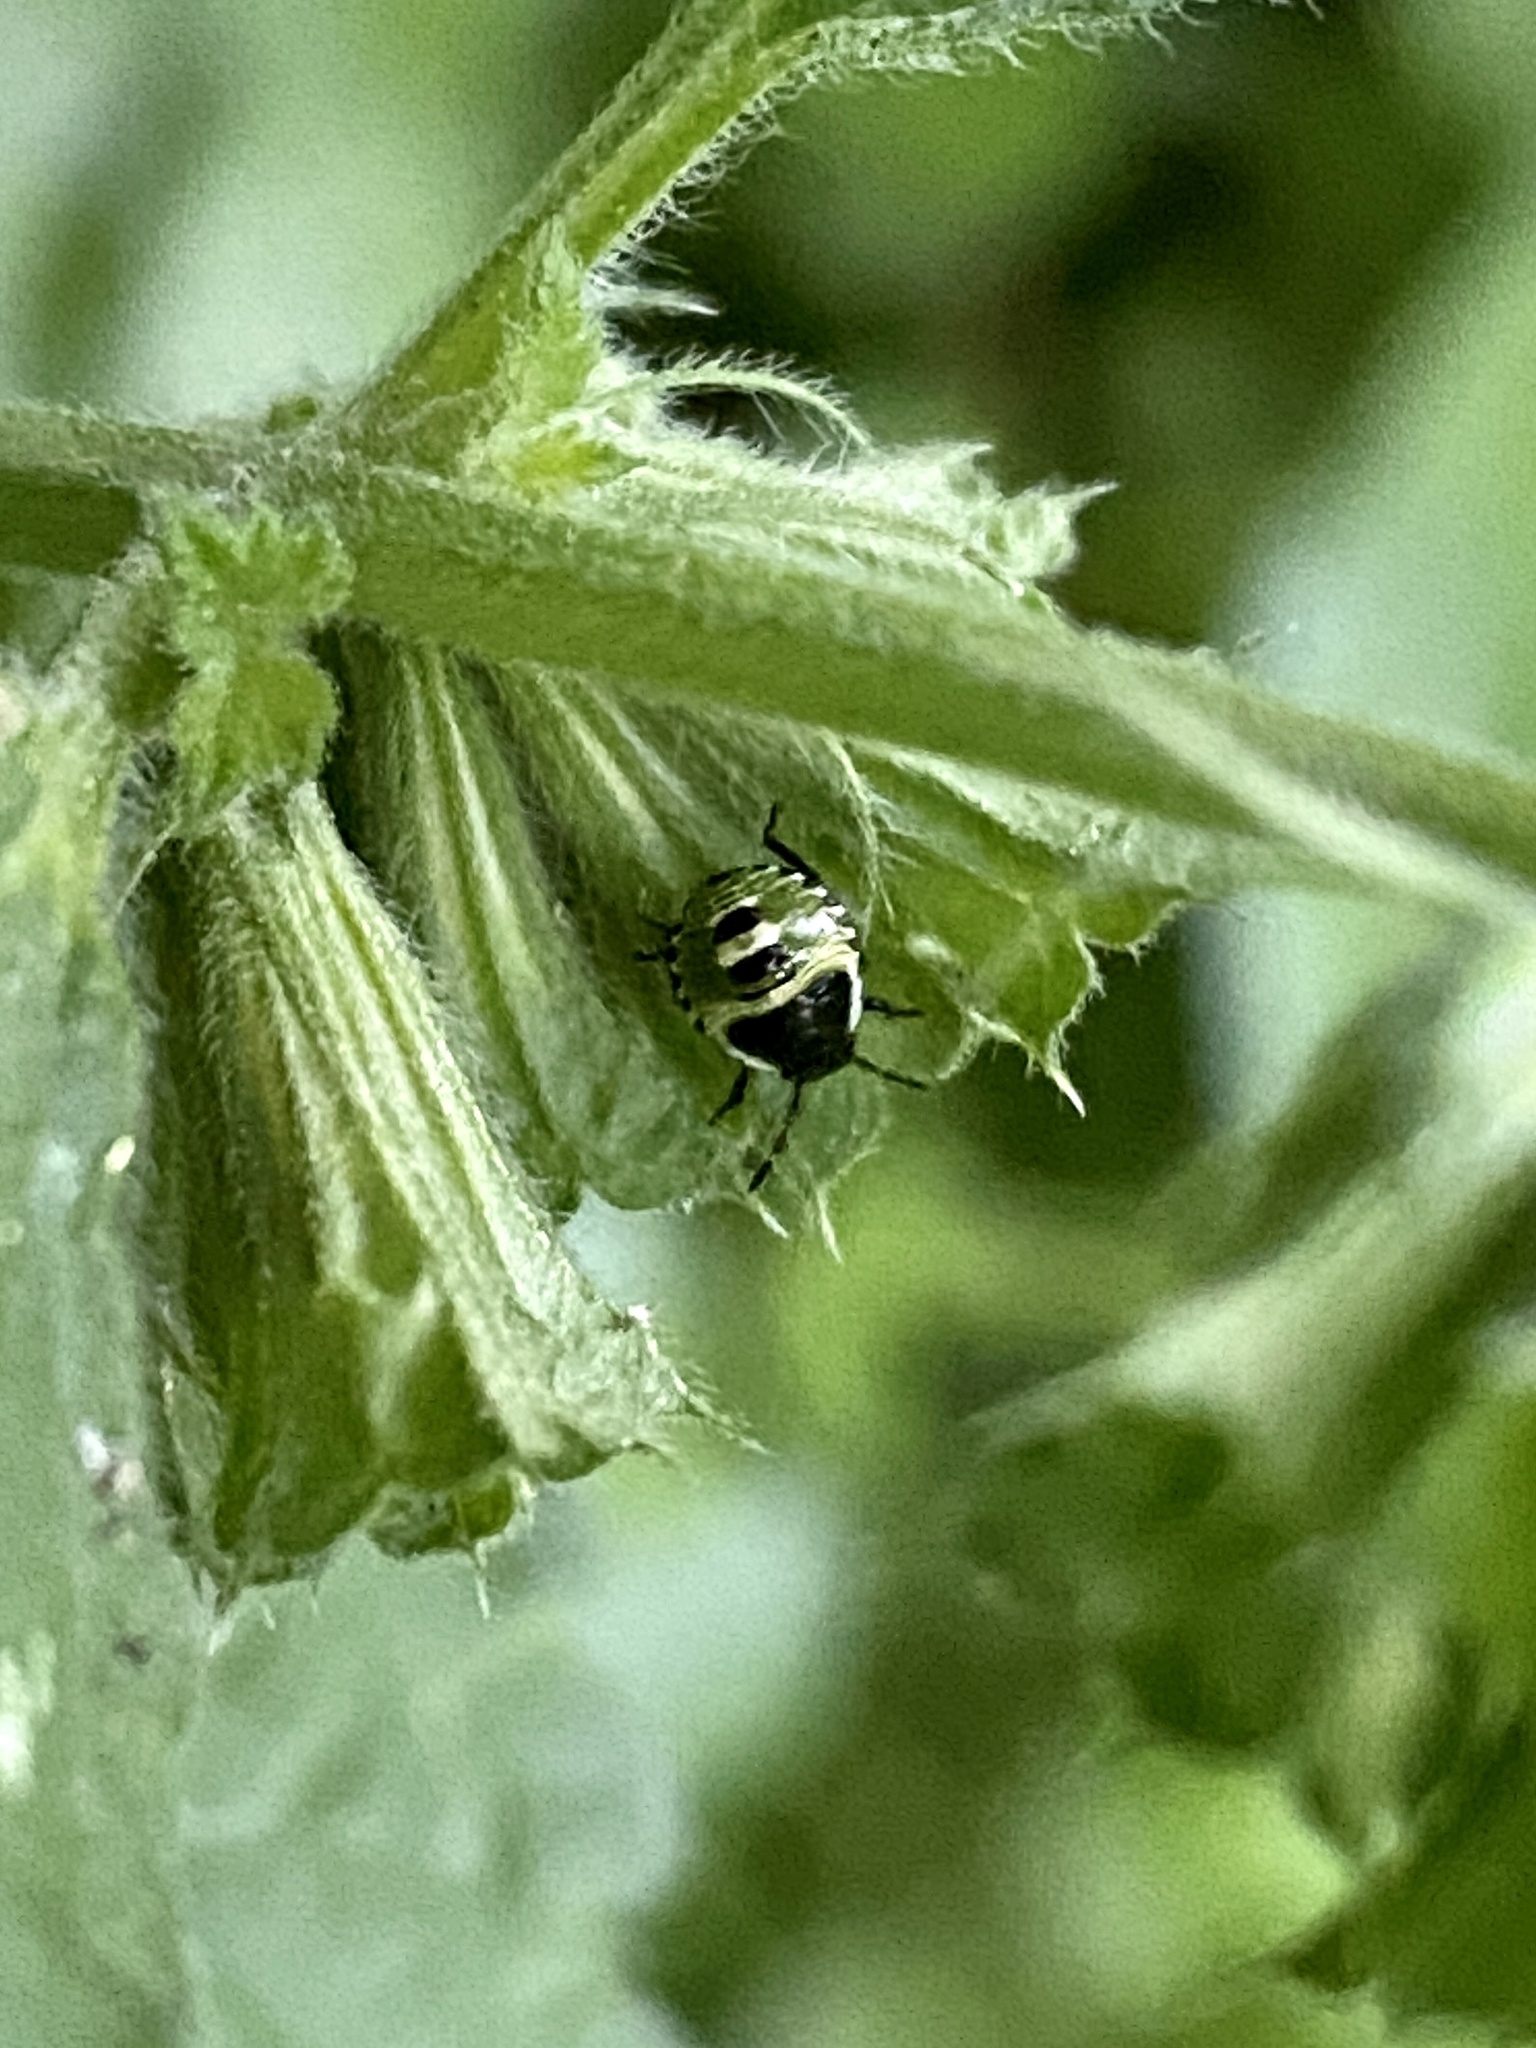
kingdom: Animalia
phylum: Arthropoda
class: Insecta
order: Hemiptera
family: Pentatomidae
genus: Palomena
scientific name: Palomena prasina
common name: Green shieldbug
